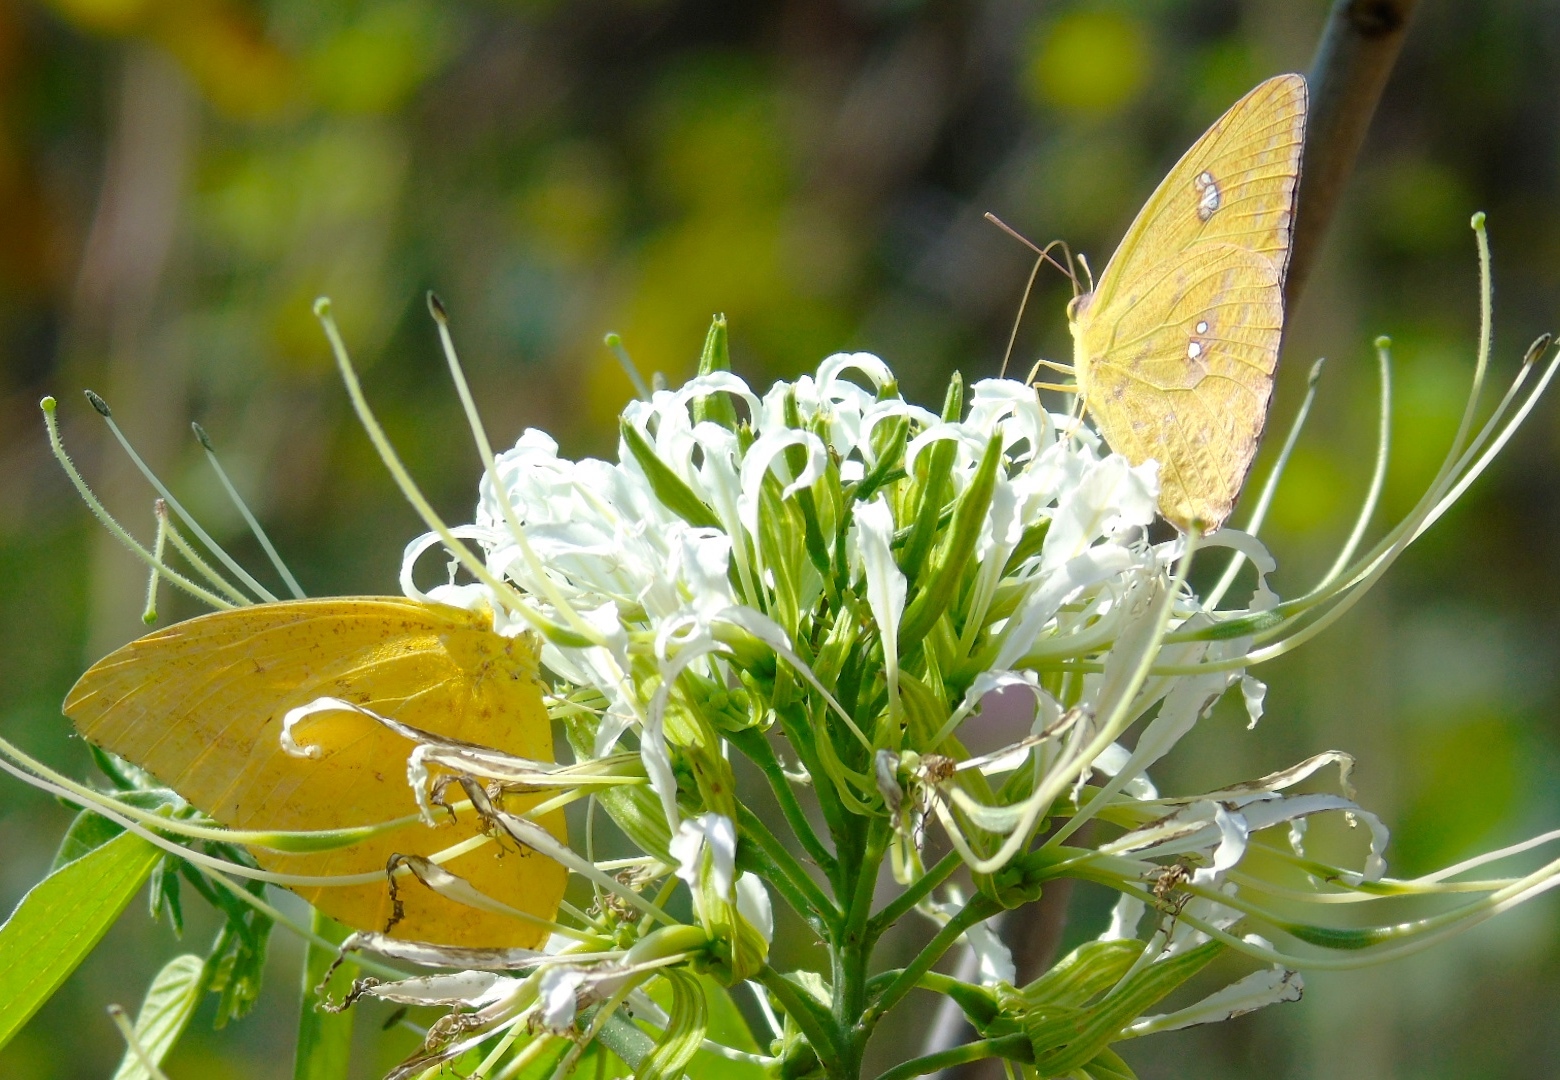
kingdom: Animalia
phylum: Arthropoda
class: Insecta
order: Lepidoptera
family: Pieridae
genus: Phoebis
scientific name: Phoebis marcellina
